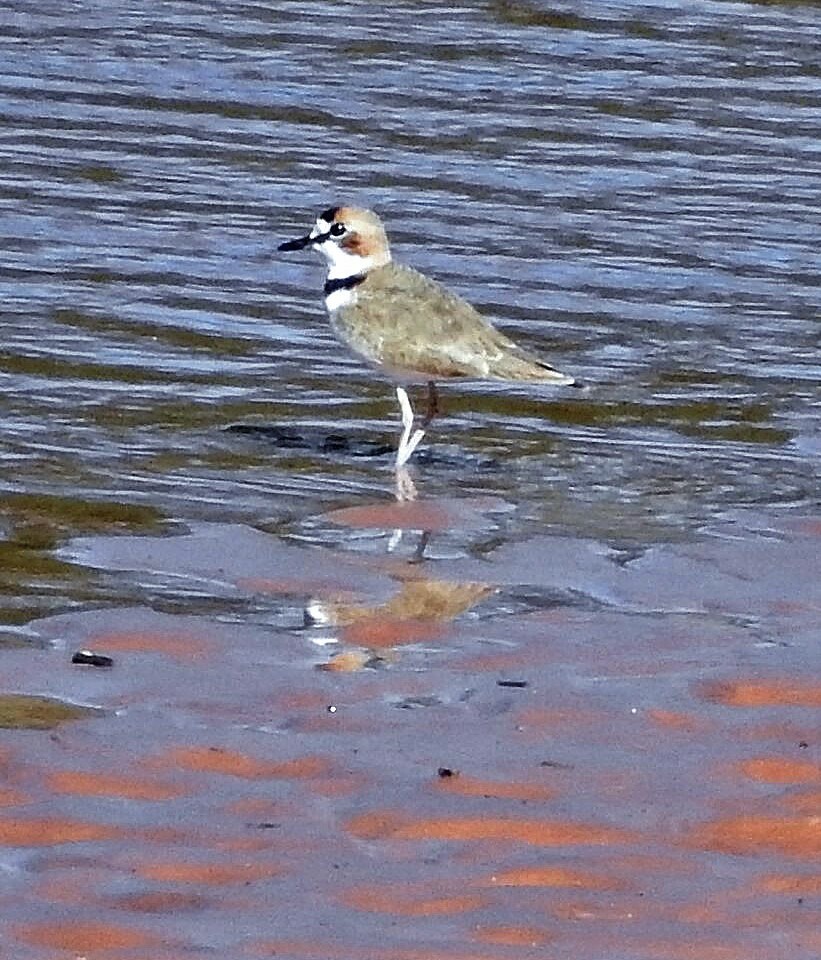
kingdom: Animalia
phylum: Chordata
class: Aves
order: Charadriiformes
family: Charadriidae
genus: Anarhynchus
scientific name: Anarhynchus
